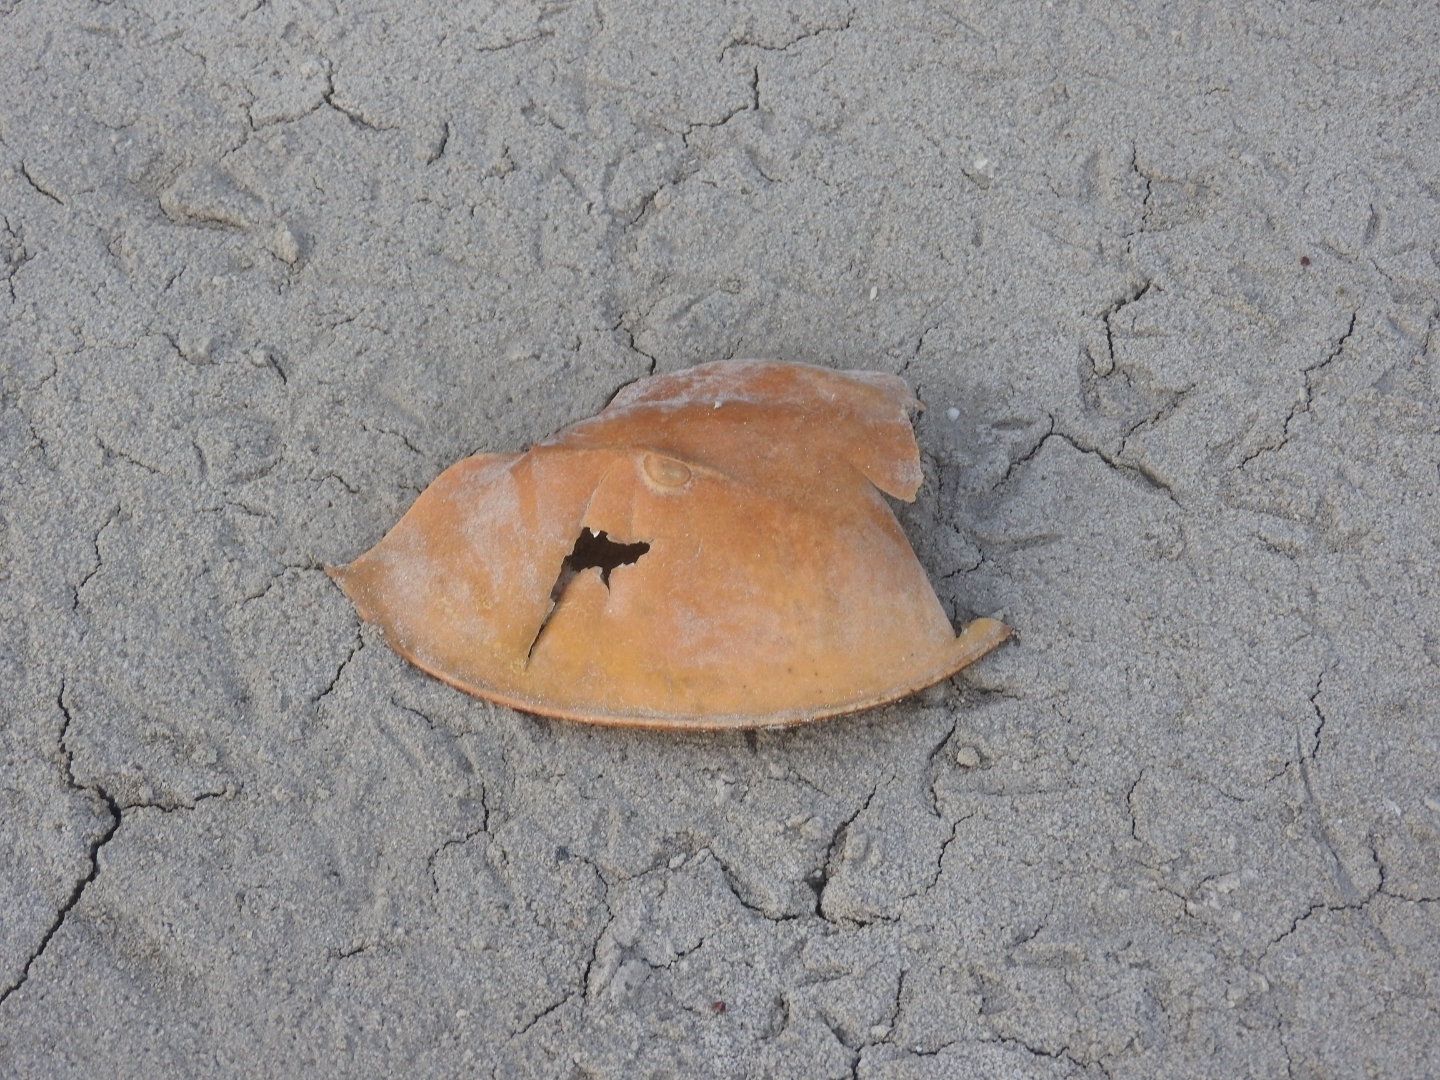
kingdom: Animalia
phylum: Arthropoda
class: Merostomata
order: Xiphosurida
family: Limulidae
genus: Limulus
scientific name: Limulus polyphemus
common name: Horseshoe crab
